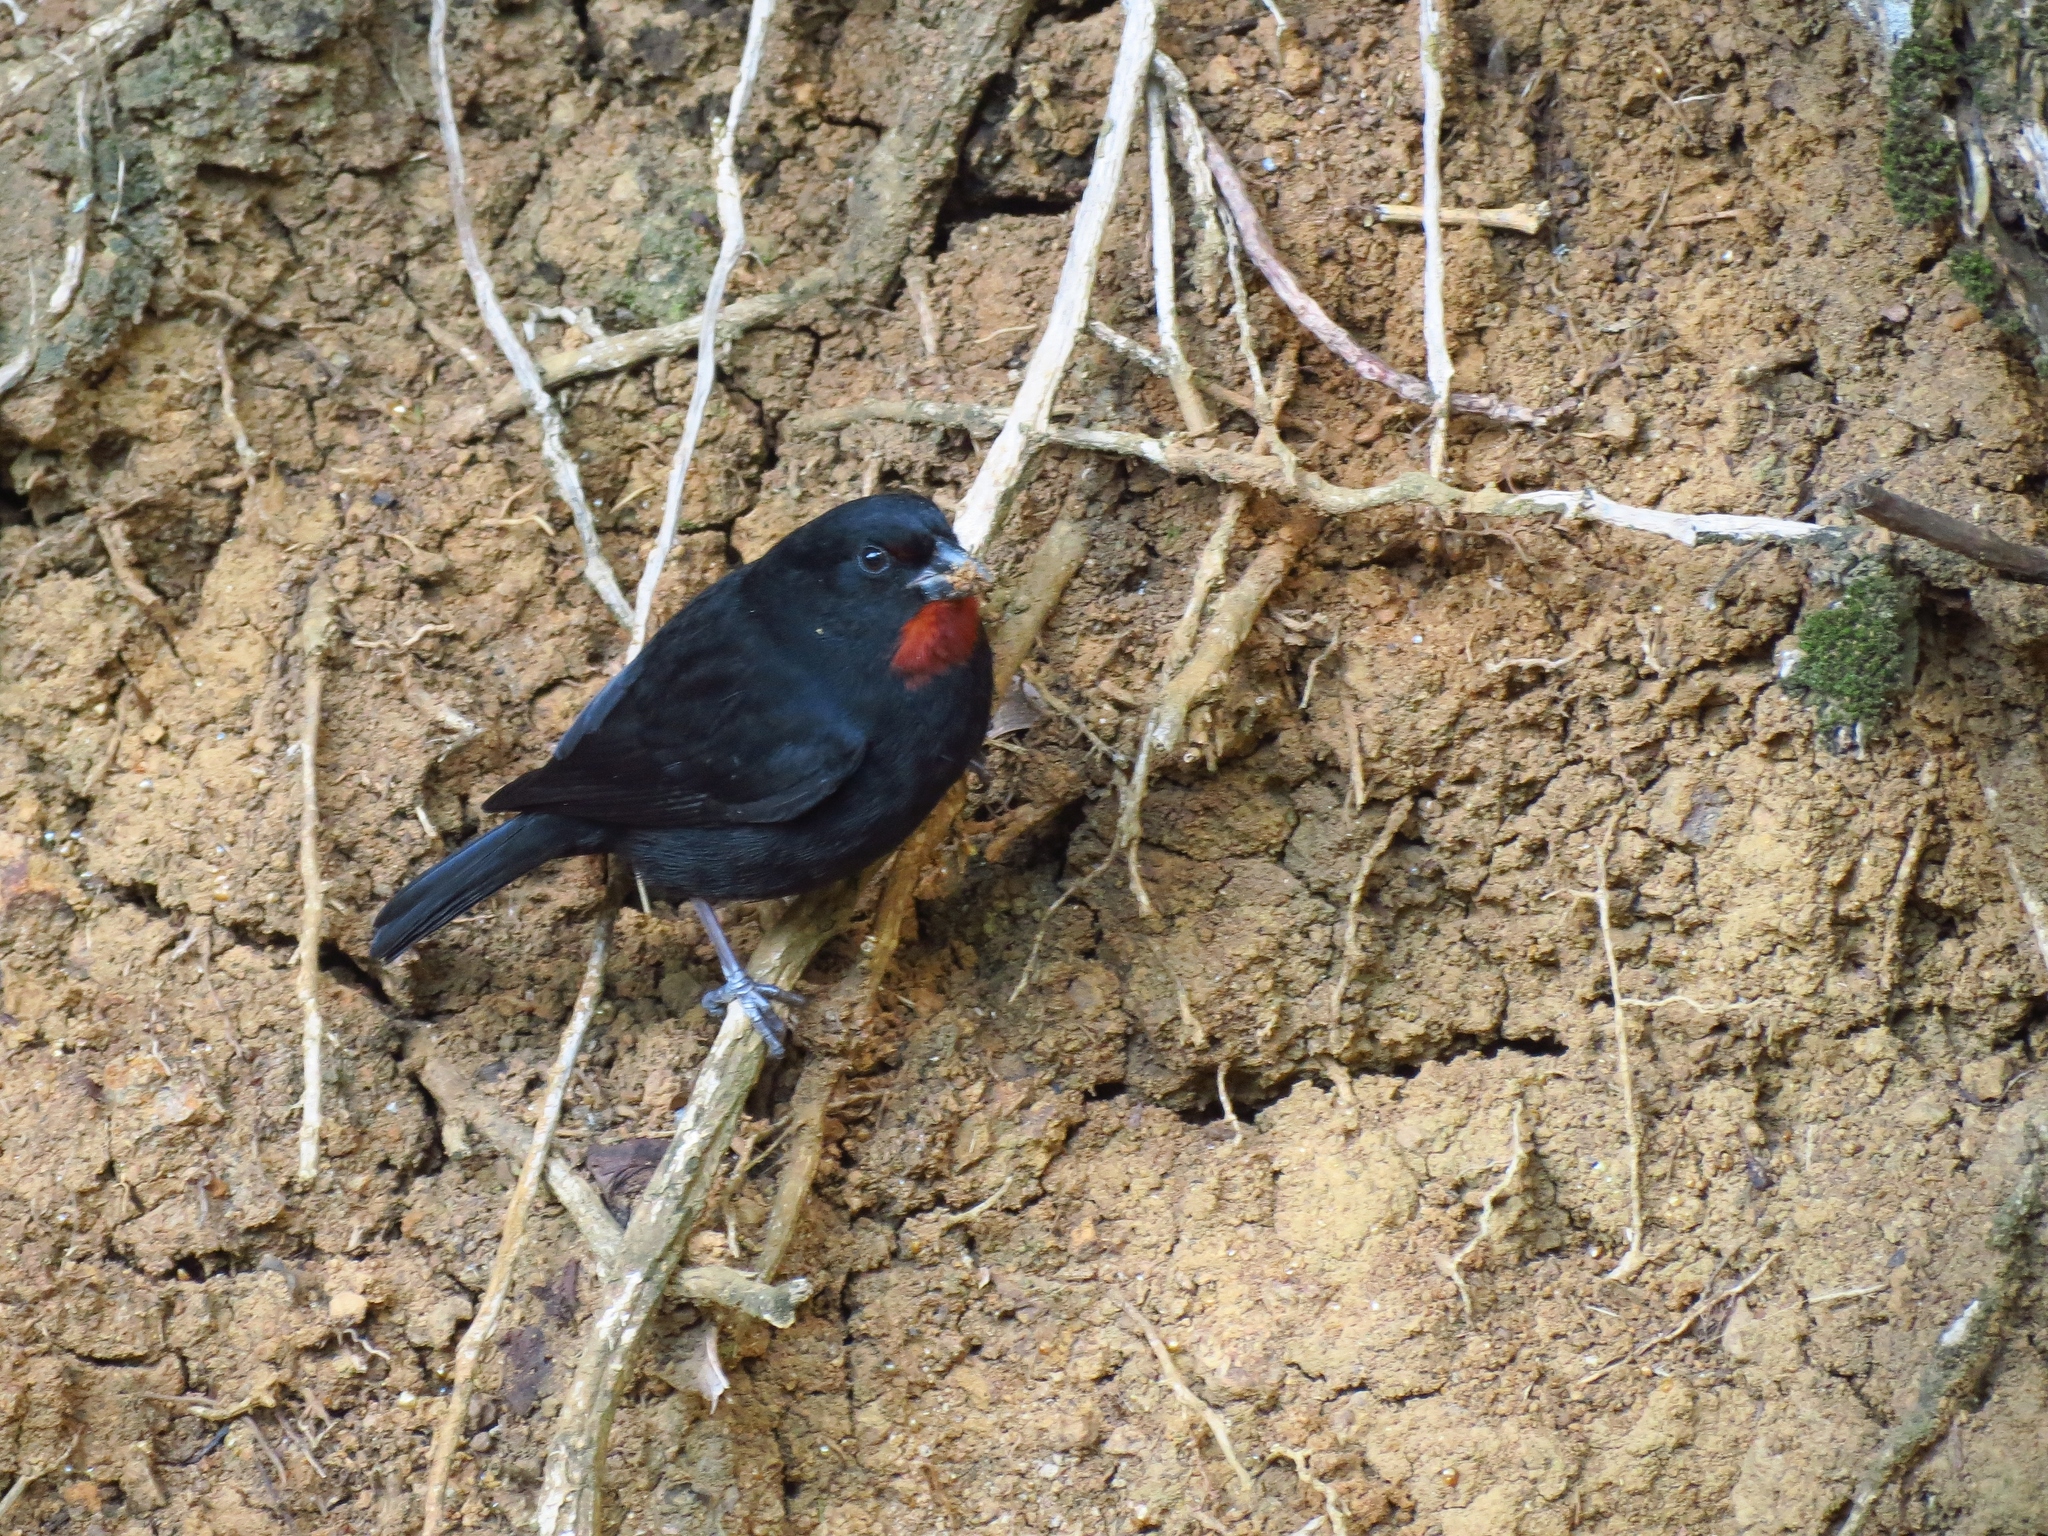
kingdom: Animalia
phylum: Chordata
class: Aves
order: Passeriformes
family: Thraupidae
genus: Loxigilla
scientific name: Loxigilla noctis
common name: Lesser antillean bullfinch
